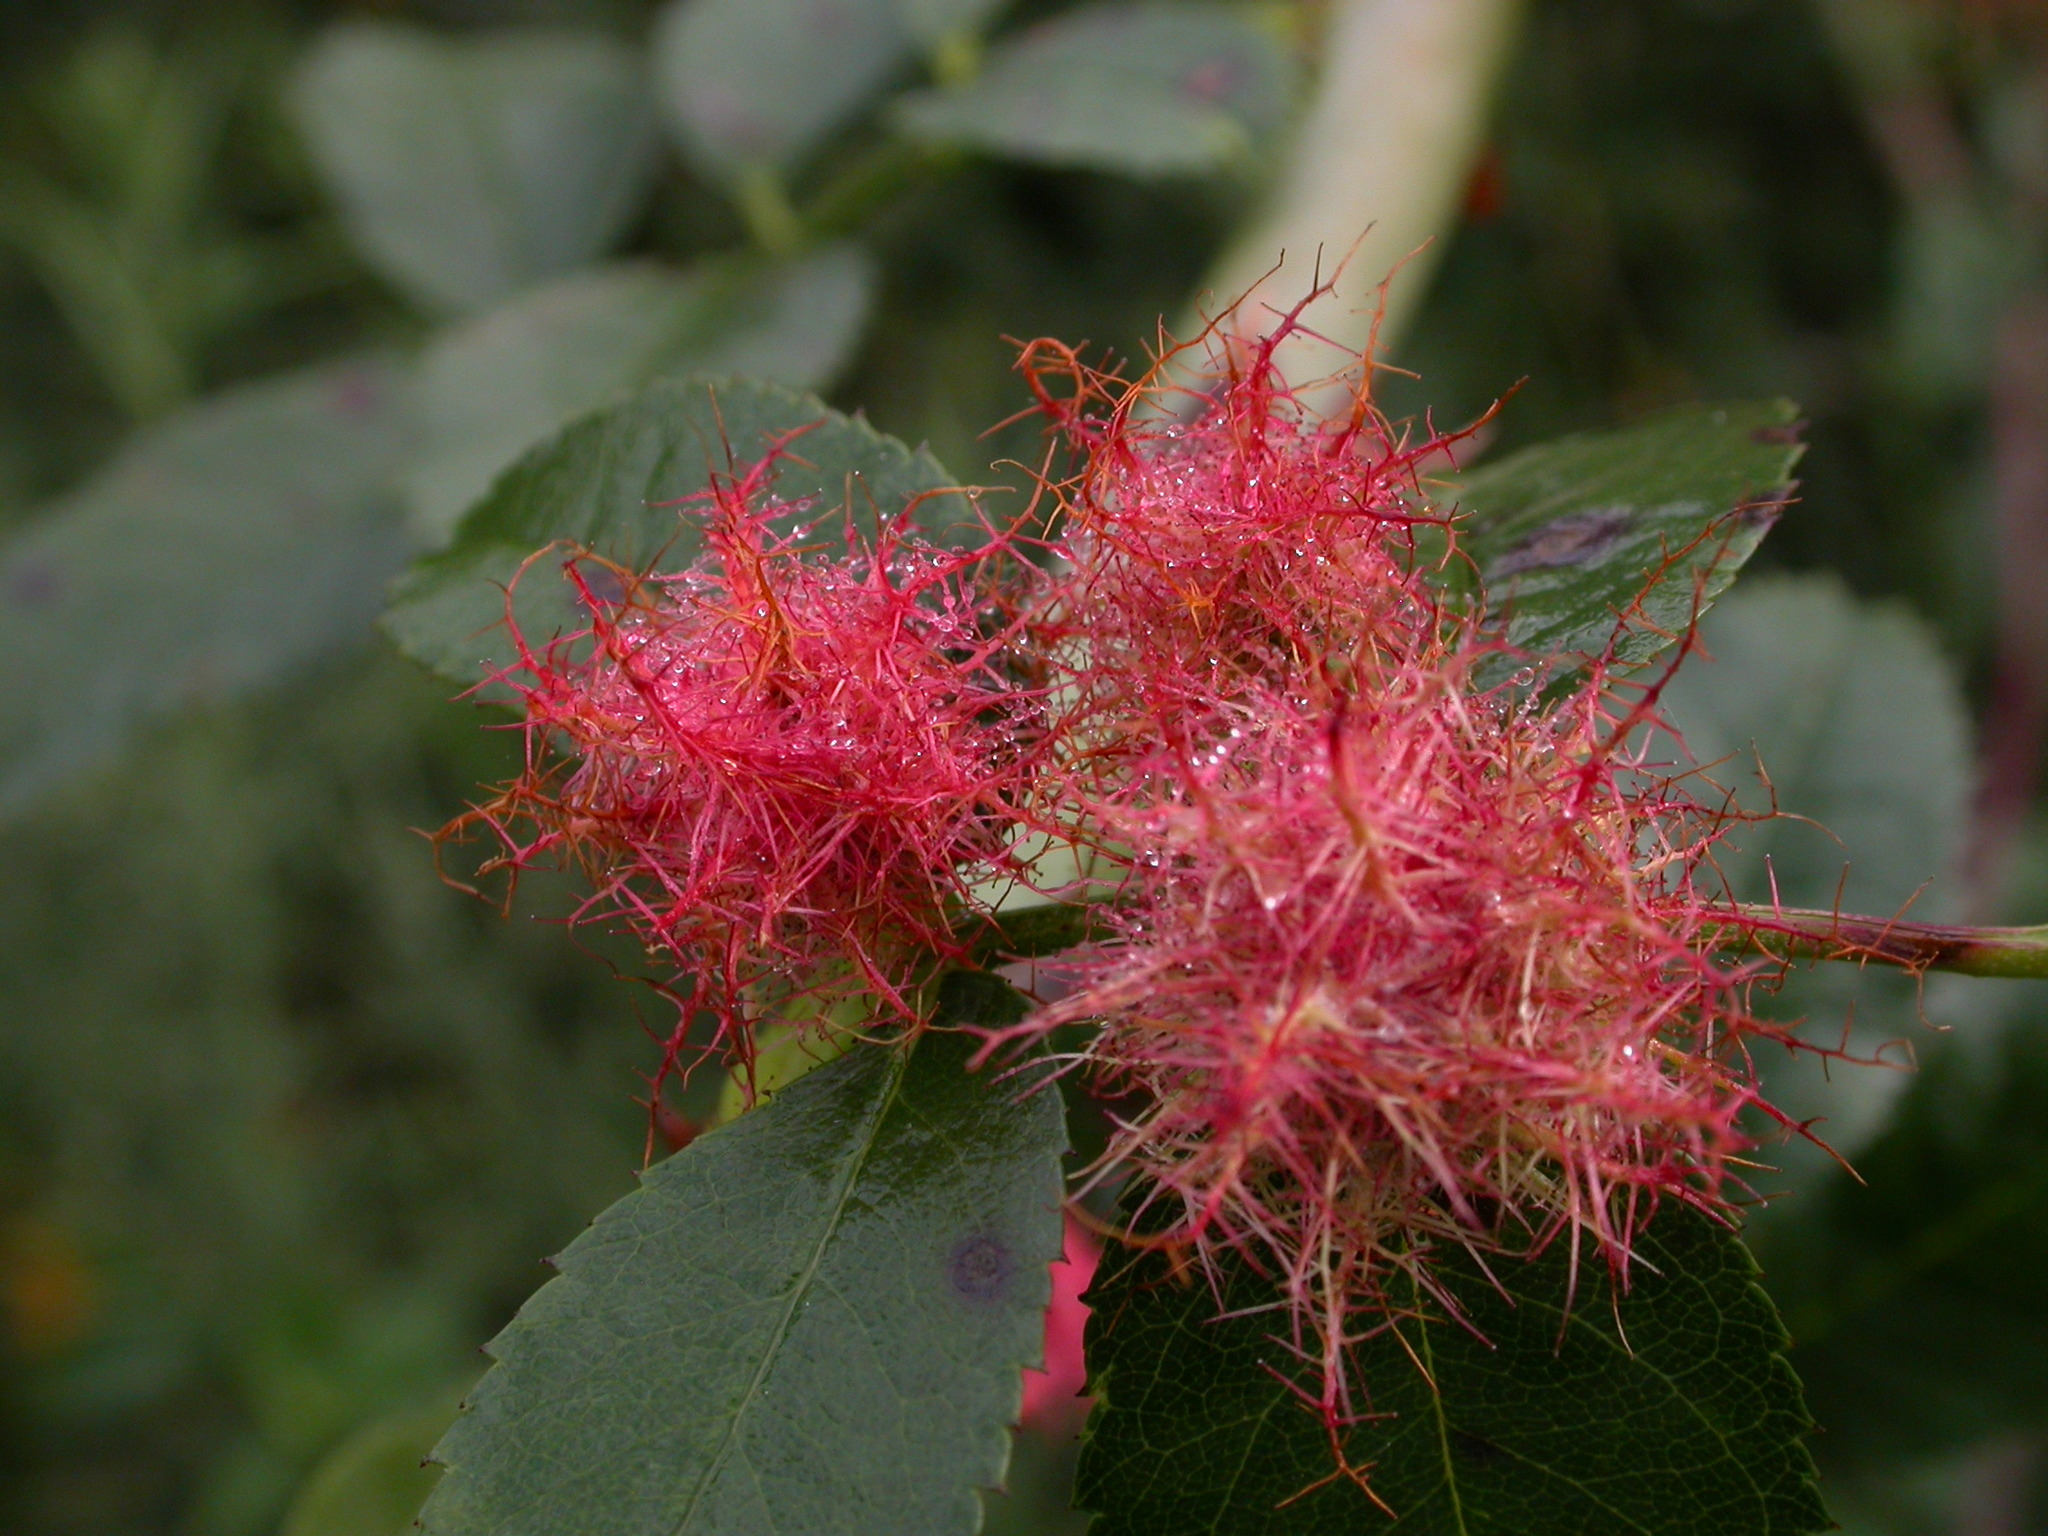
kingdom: Animalia
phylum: Arthropoda
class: Insecta
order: Hymenoptera
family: Cynipidae
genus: Diplolepis
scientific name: Diplolepis rosae
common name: Bedeguar gall
